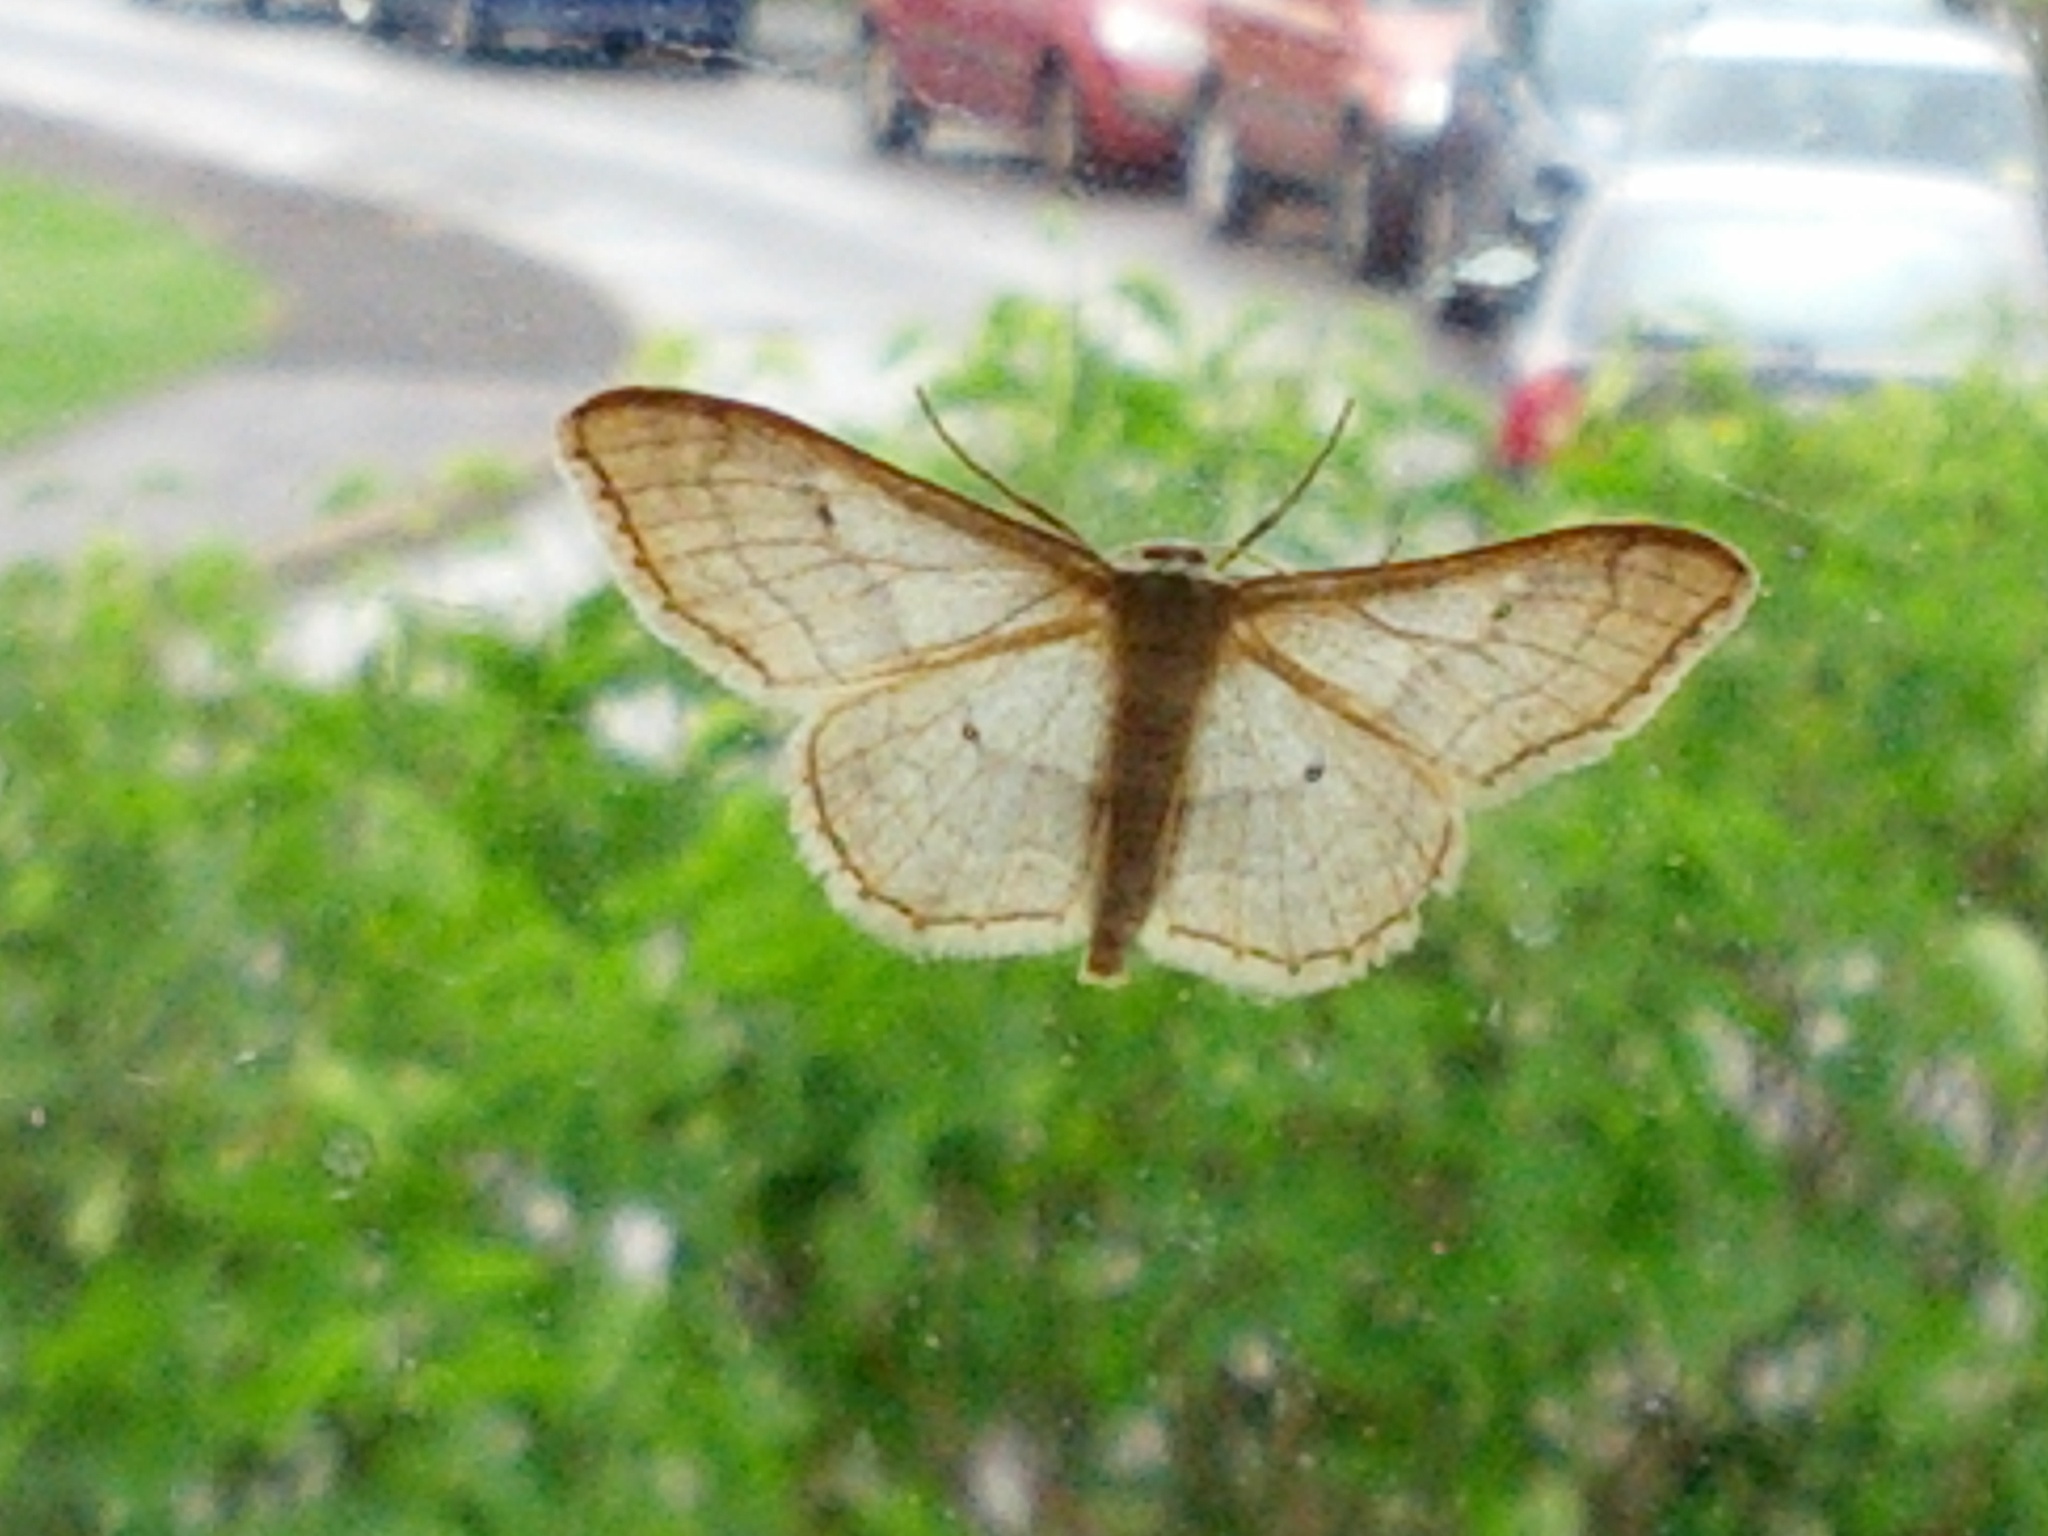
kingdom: Animalia
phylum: Arthropoda
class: Insecta
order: Lepidoptera
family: Geometridae
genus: Idaea
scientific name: Idaea aversata
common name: Riband wave
